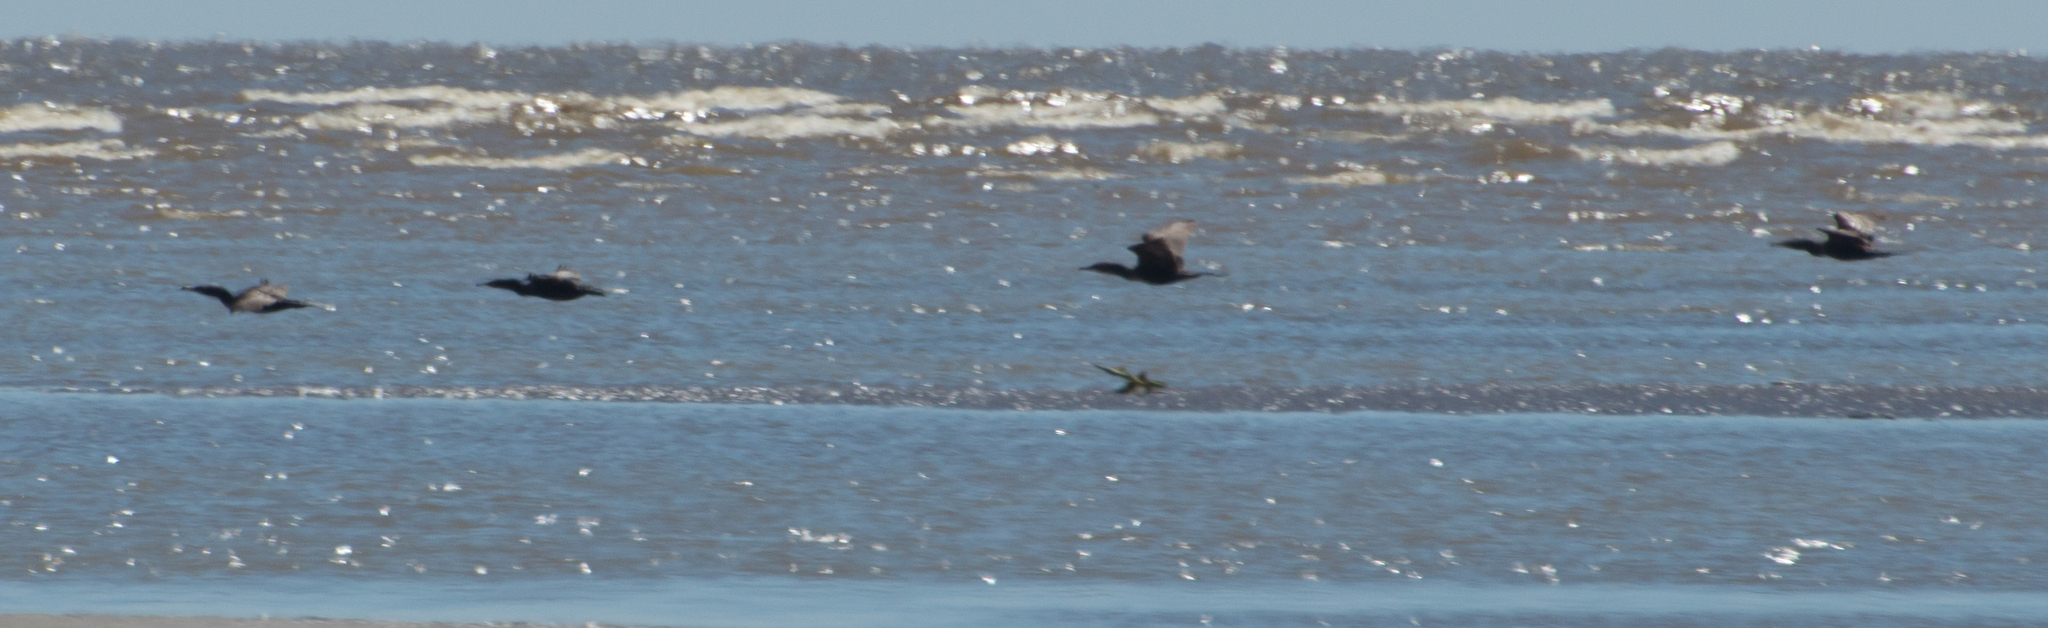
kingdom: Animalia
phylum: Chordata
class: Aves
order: Suliformes
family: Phalacrocoracidae
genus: Phalacrocorax
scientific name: Phalacrocorax brasilianus
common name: Neotropic cormorant
